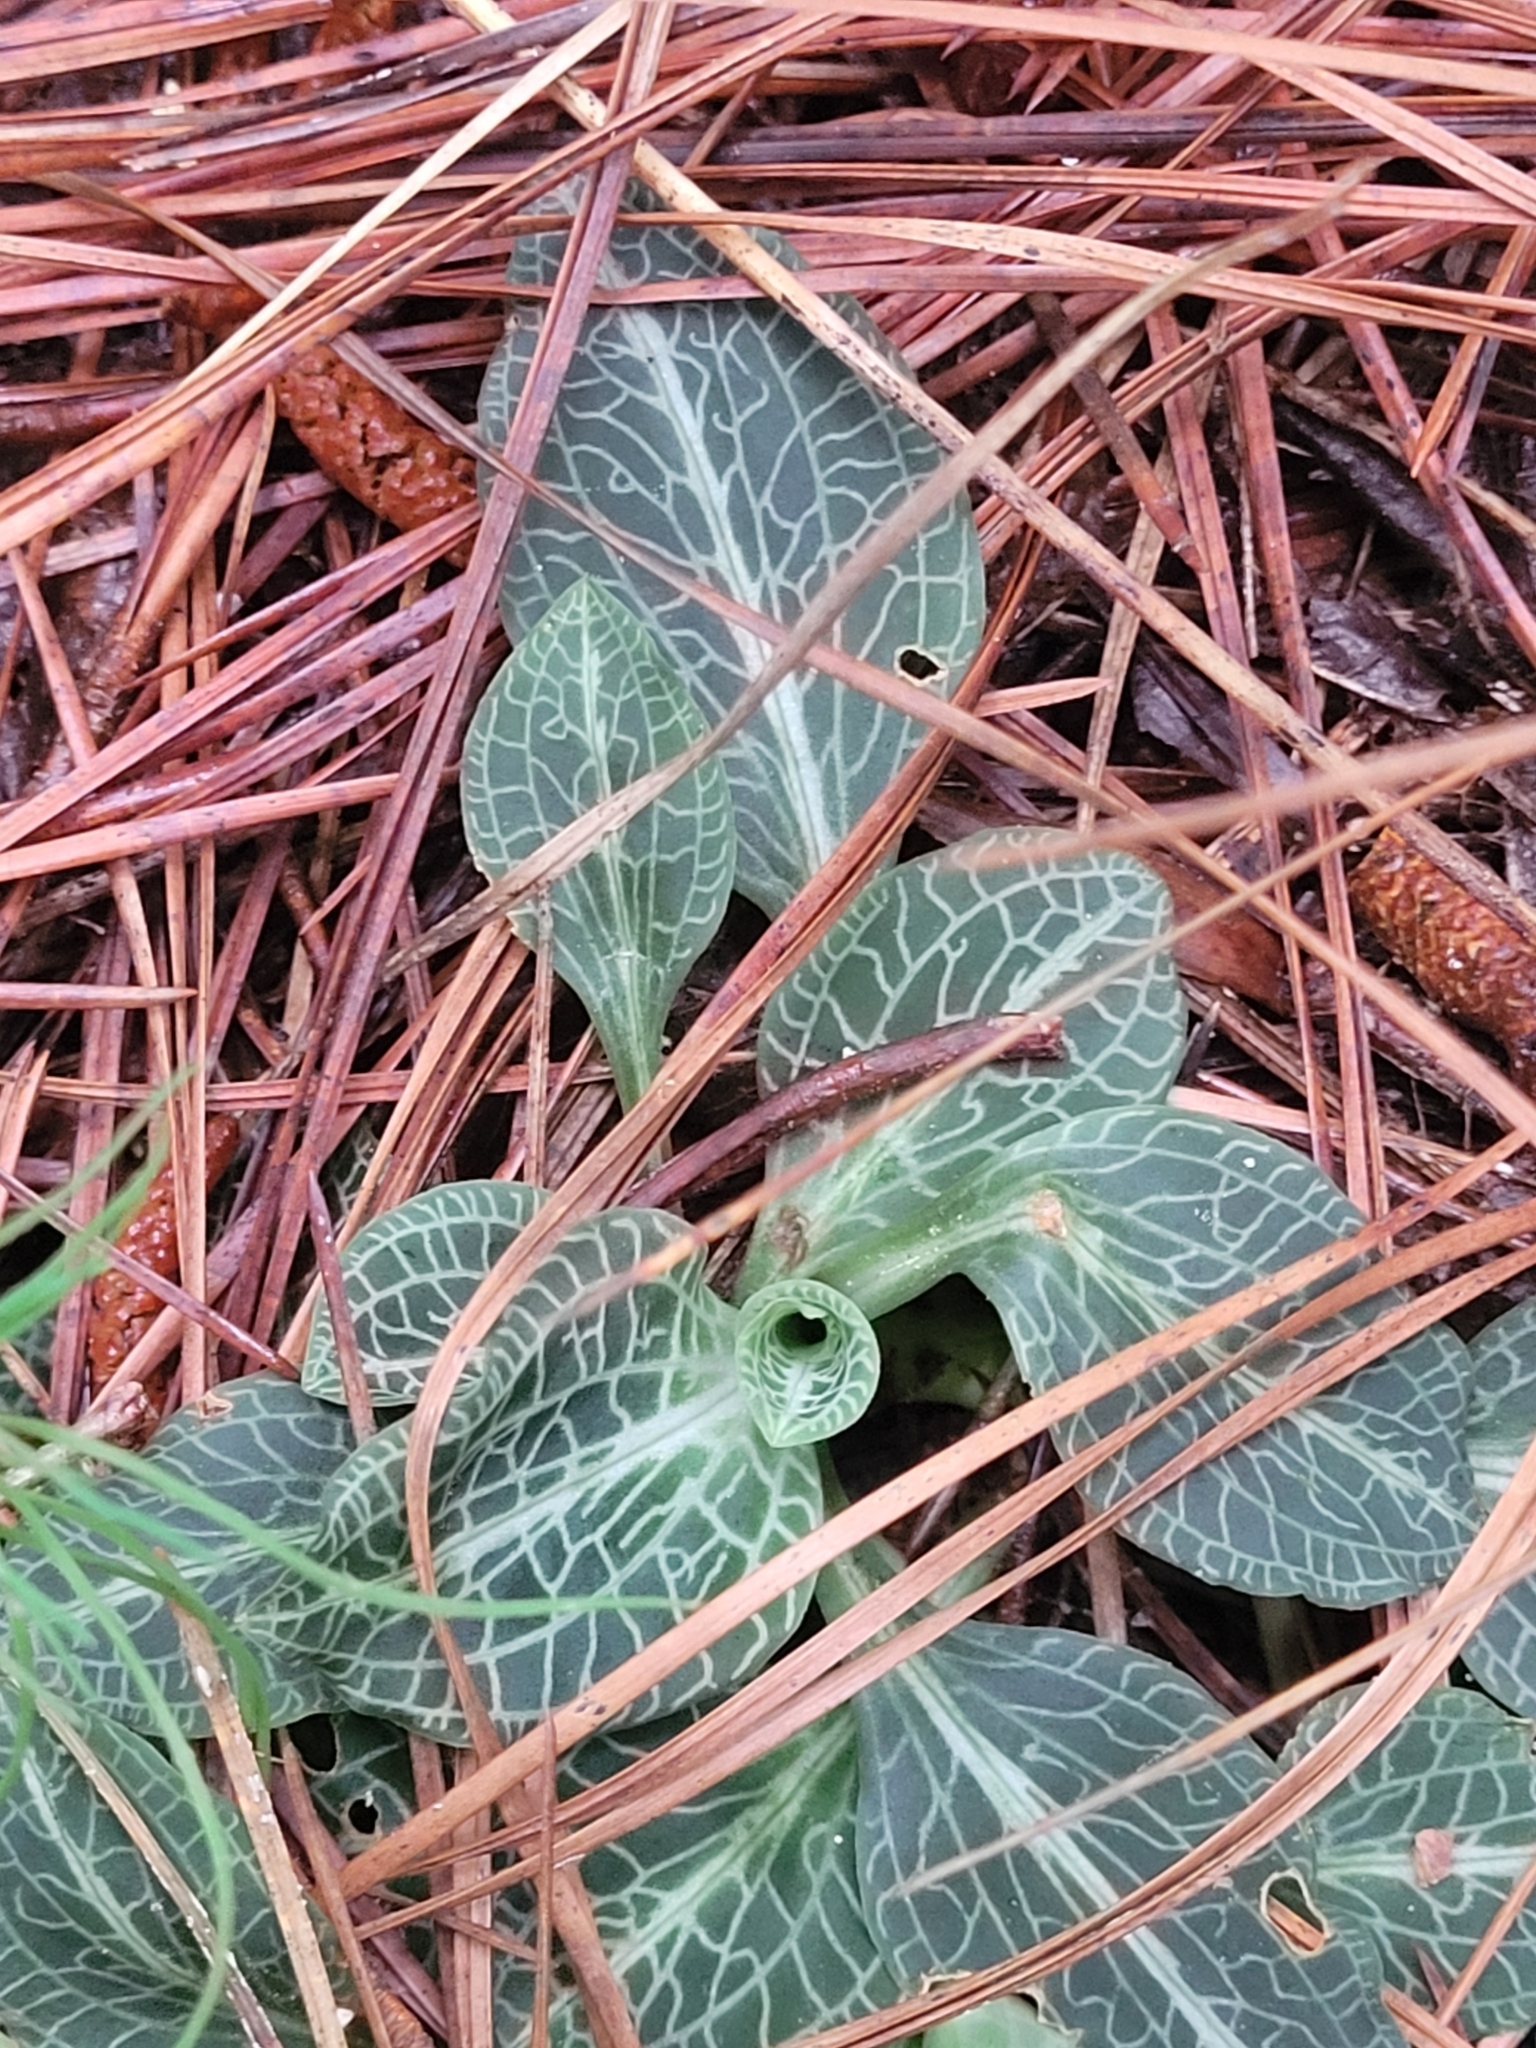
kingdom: Plantae
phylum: Tracheophyta
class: Liliopsida
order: Asparagales
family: Orchidaceae
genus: Goodyera
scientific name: Goodyera pubescens
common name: Downy rattlesnake-plantain
